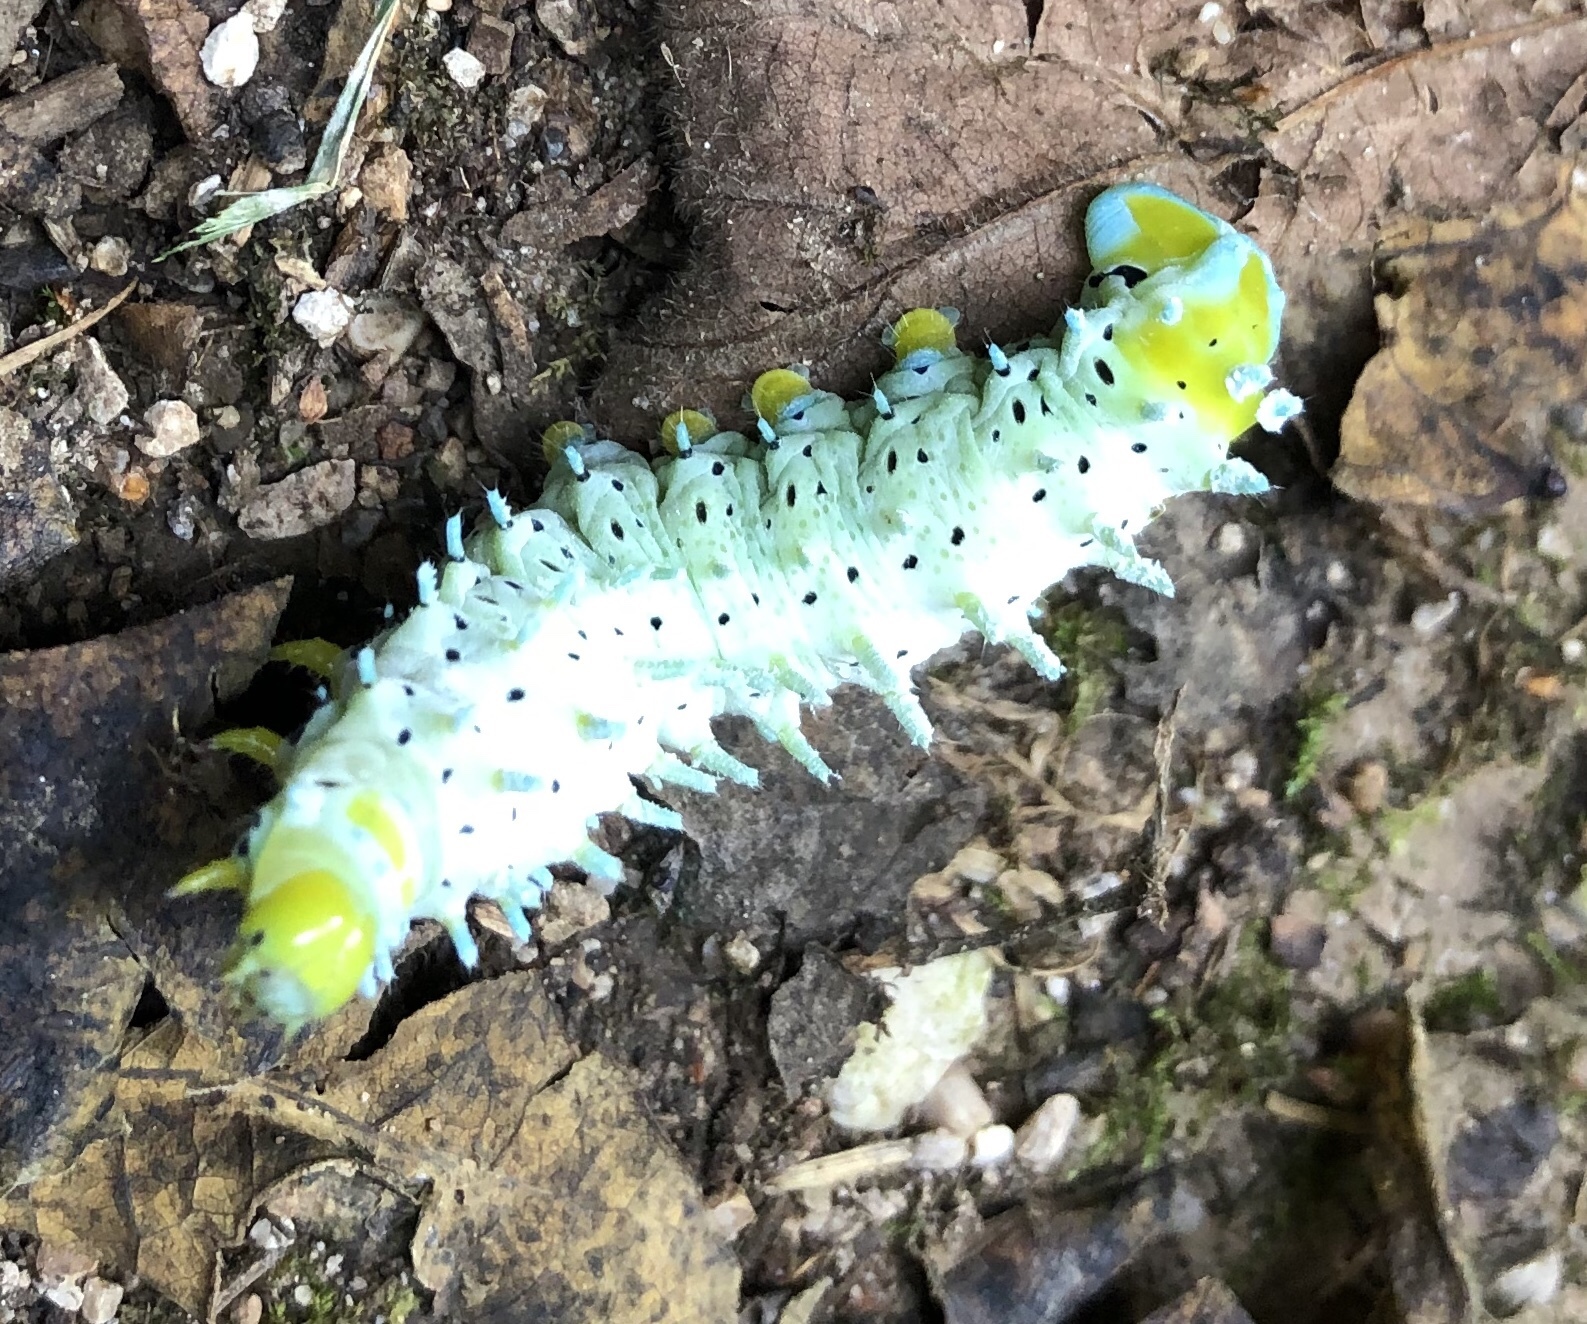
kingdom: Animalia
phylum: Arthropoda
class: Insecta
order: Lepidoptera
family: Saturniidae
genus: Samia
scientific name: Samia cynthia
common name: Ailanthus silkmoth
